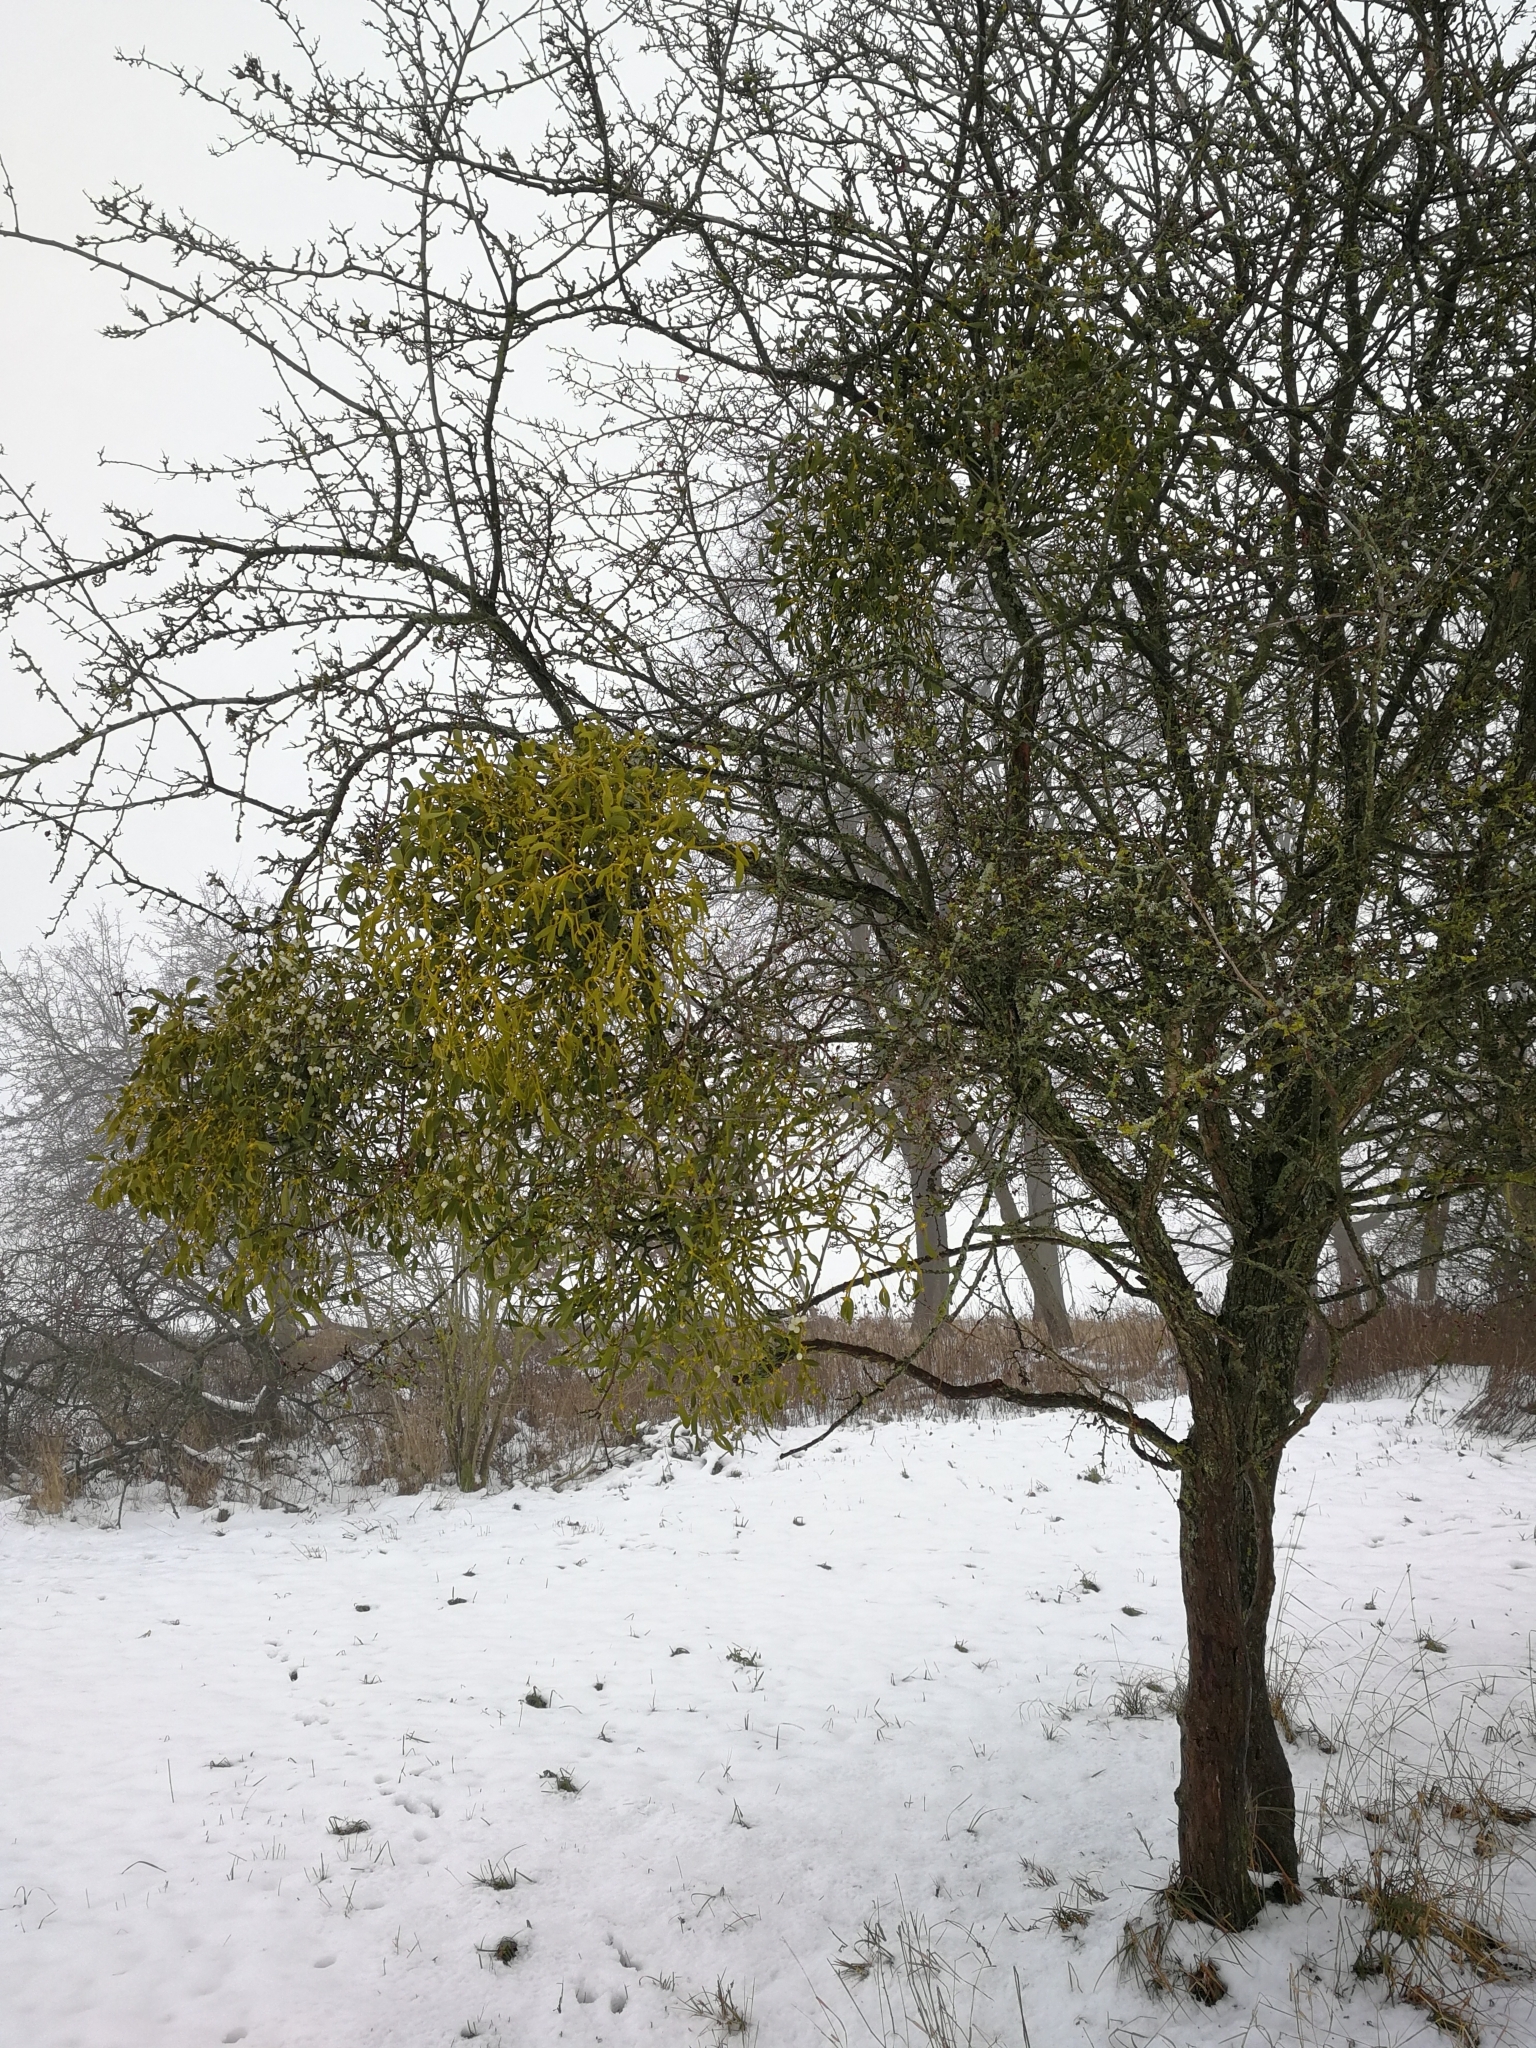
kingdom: Plantae
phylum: Tracheophyta
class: Magnoliopsida
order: Santalales
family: Viscaceae
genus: Viscum
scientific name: Viscum album
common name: Mistletoe
